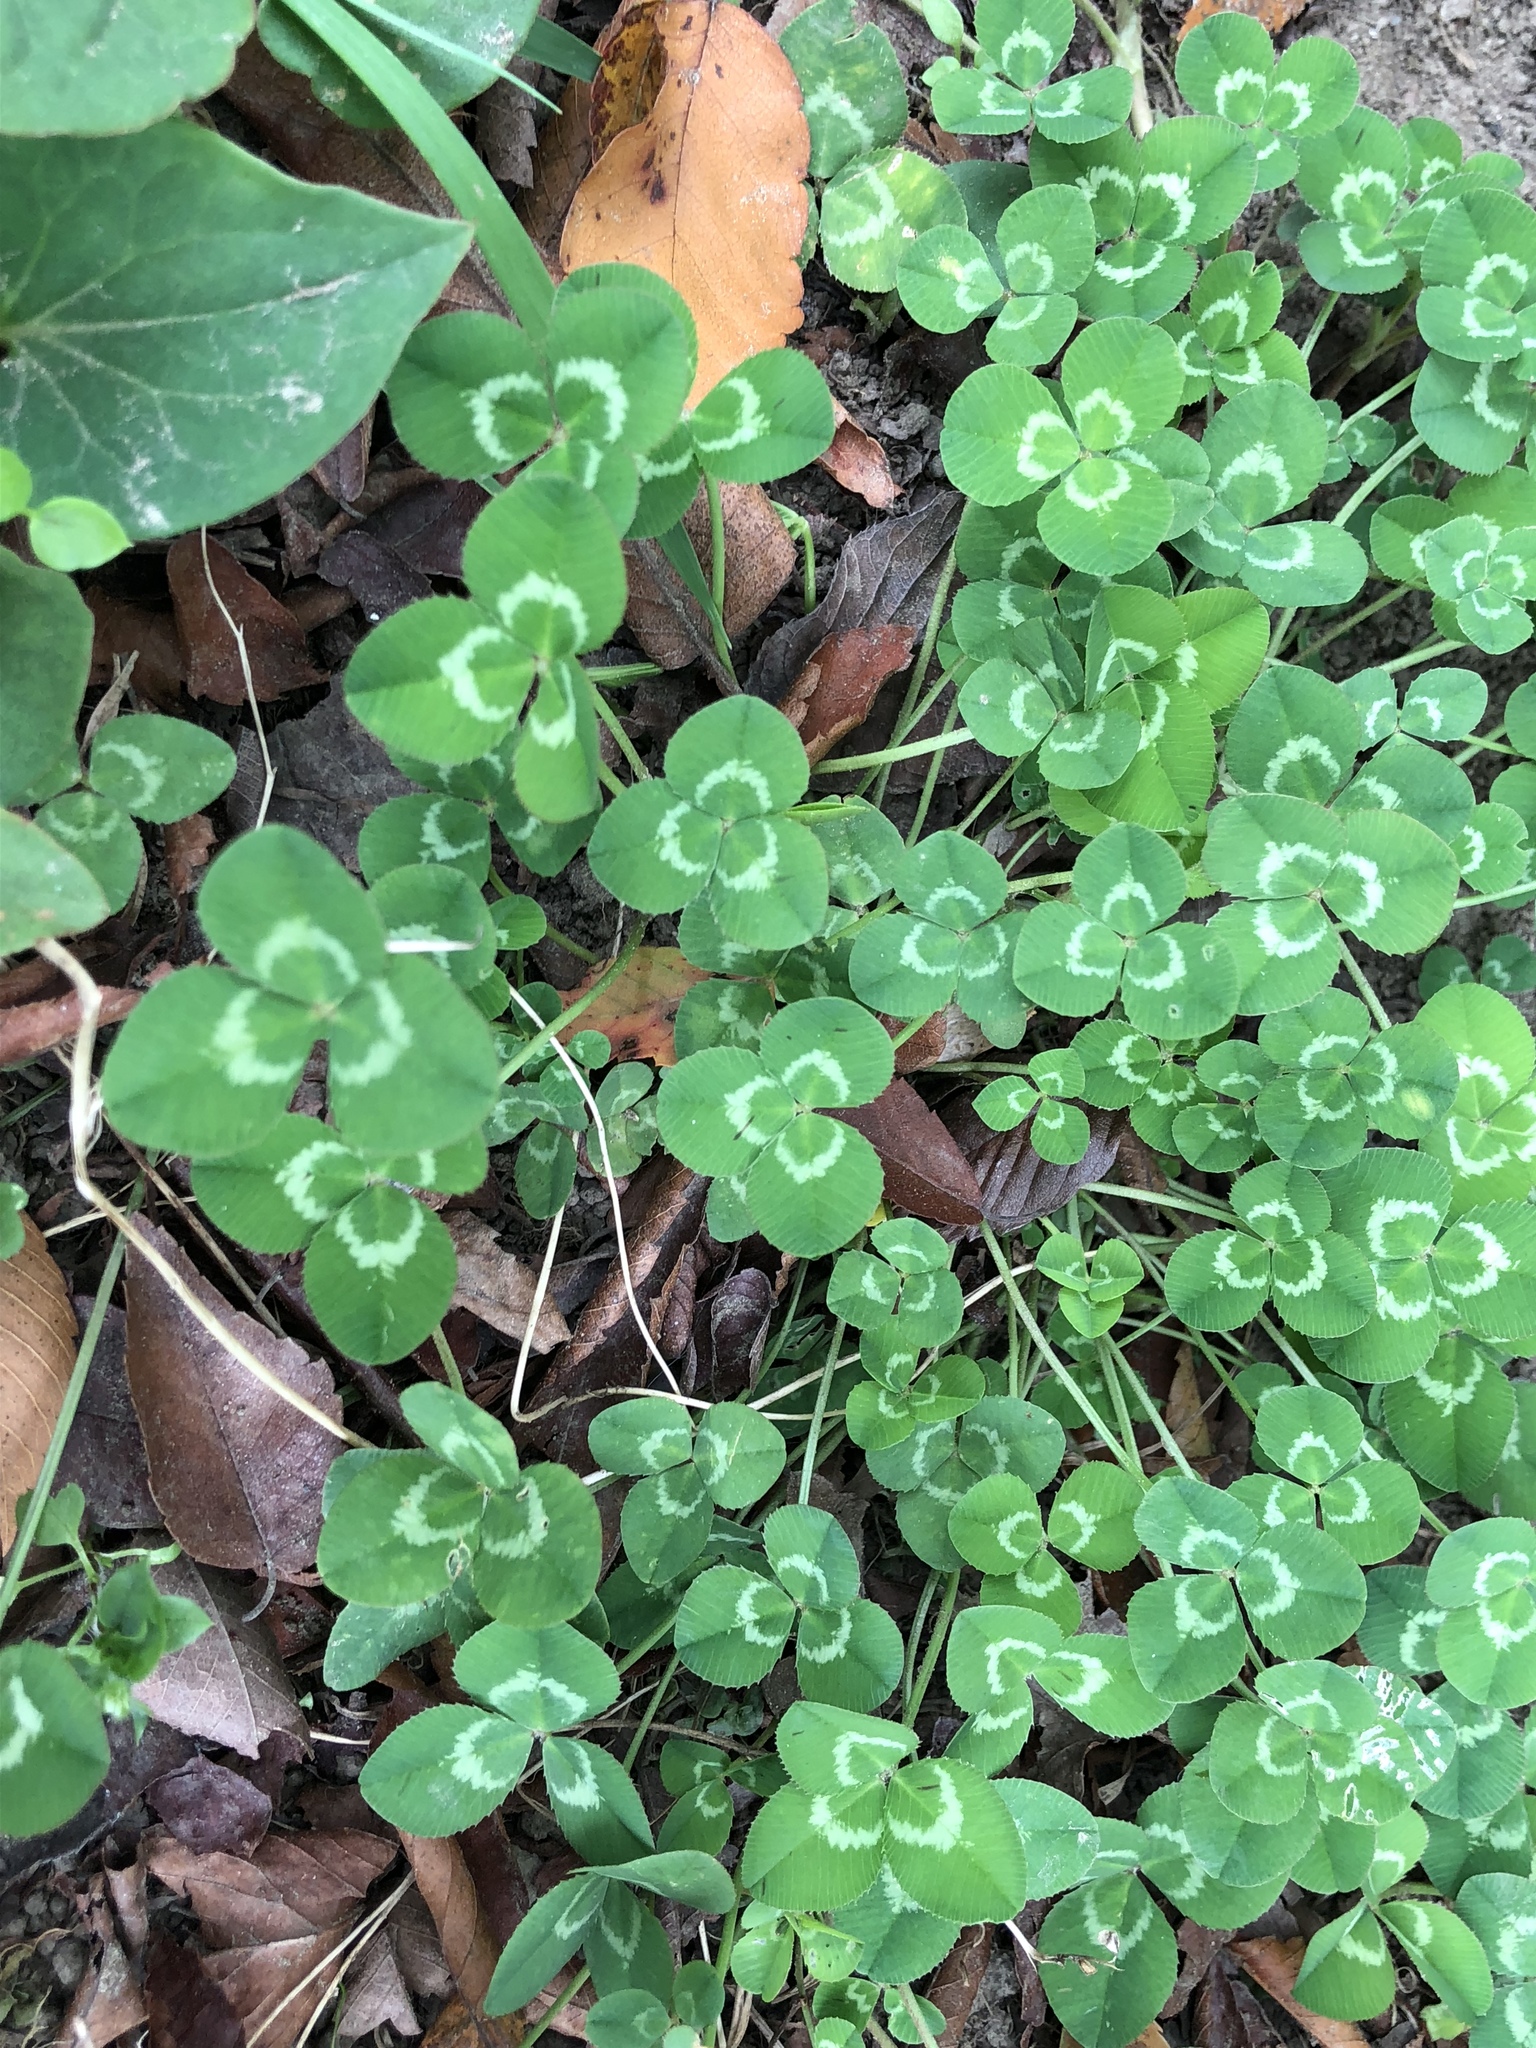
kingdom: Plantae
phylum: Tracheophyta
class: Magnoliopsida
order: Fabales
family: Fabaceae
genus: Trifolium
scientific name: Trifolium repens
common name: White clover
